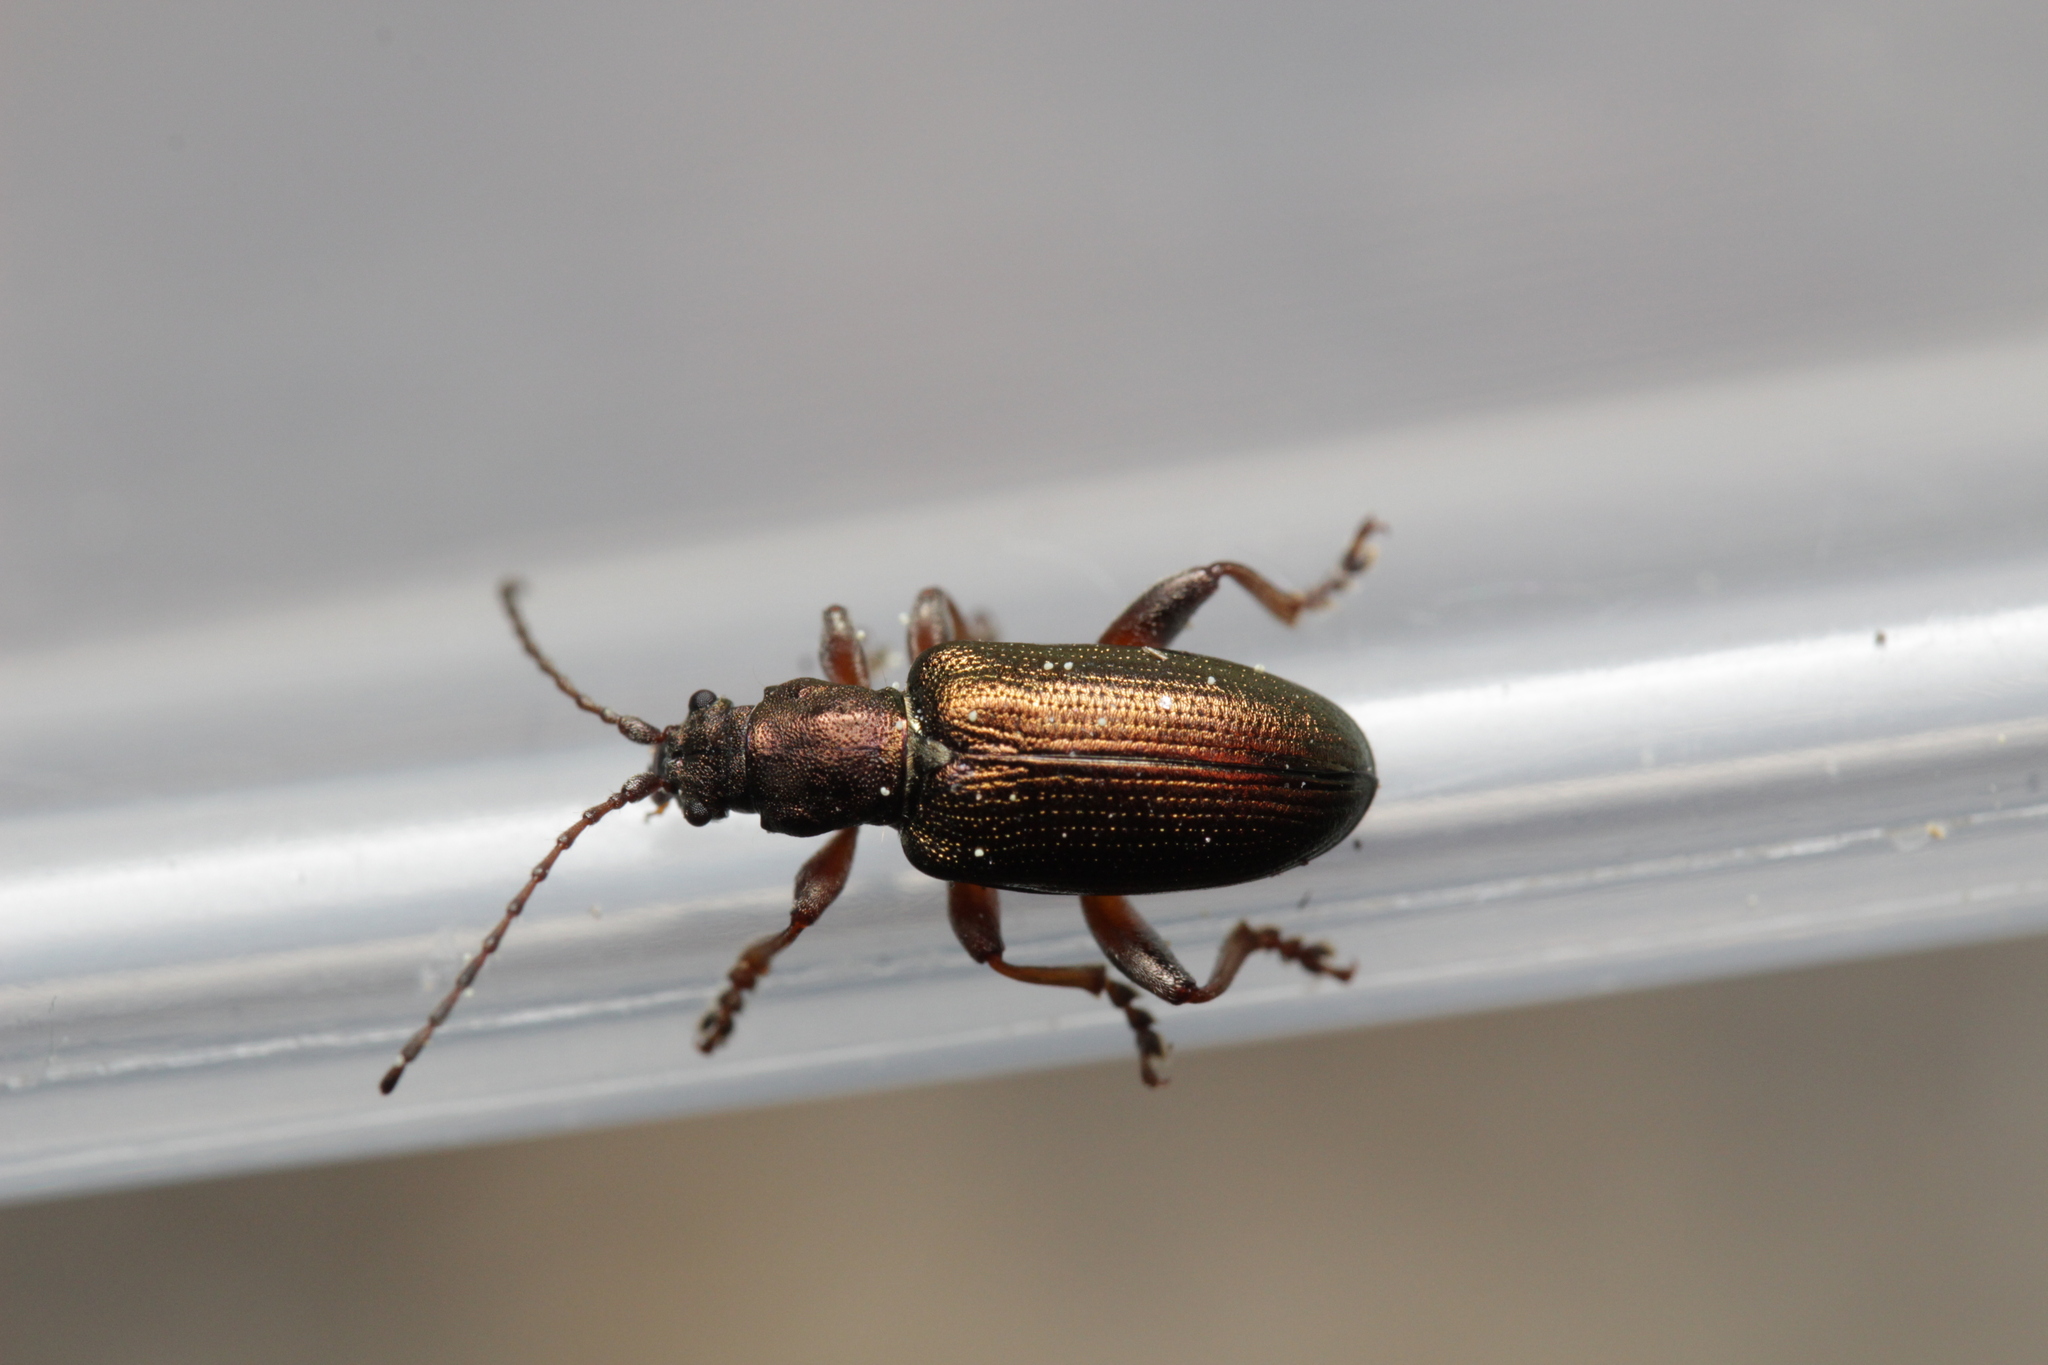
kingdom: Animalia
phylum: Arthropoda
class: Insecta
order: Coleoptera
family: Chrysomelidae
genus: Plateumaris
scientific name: Plateumaris
